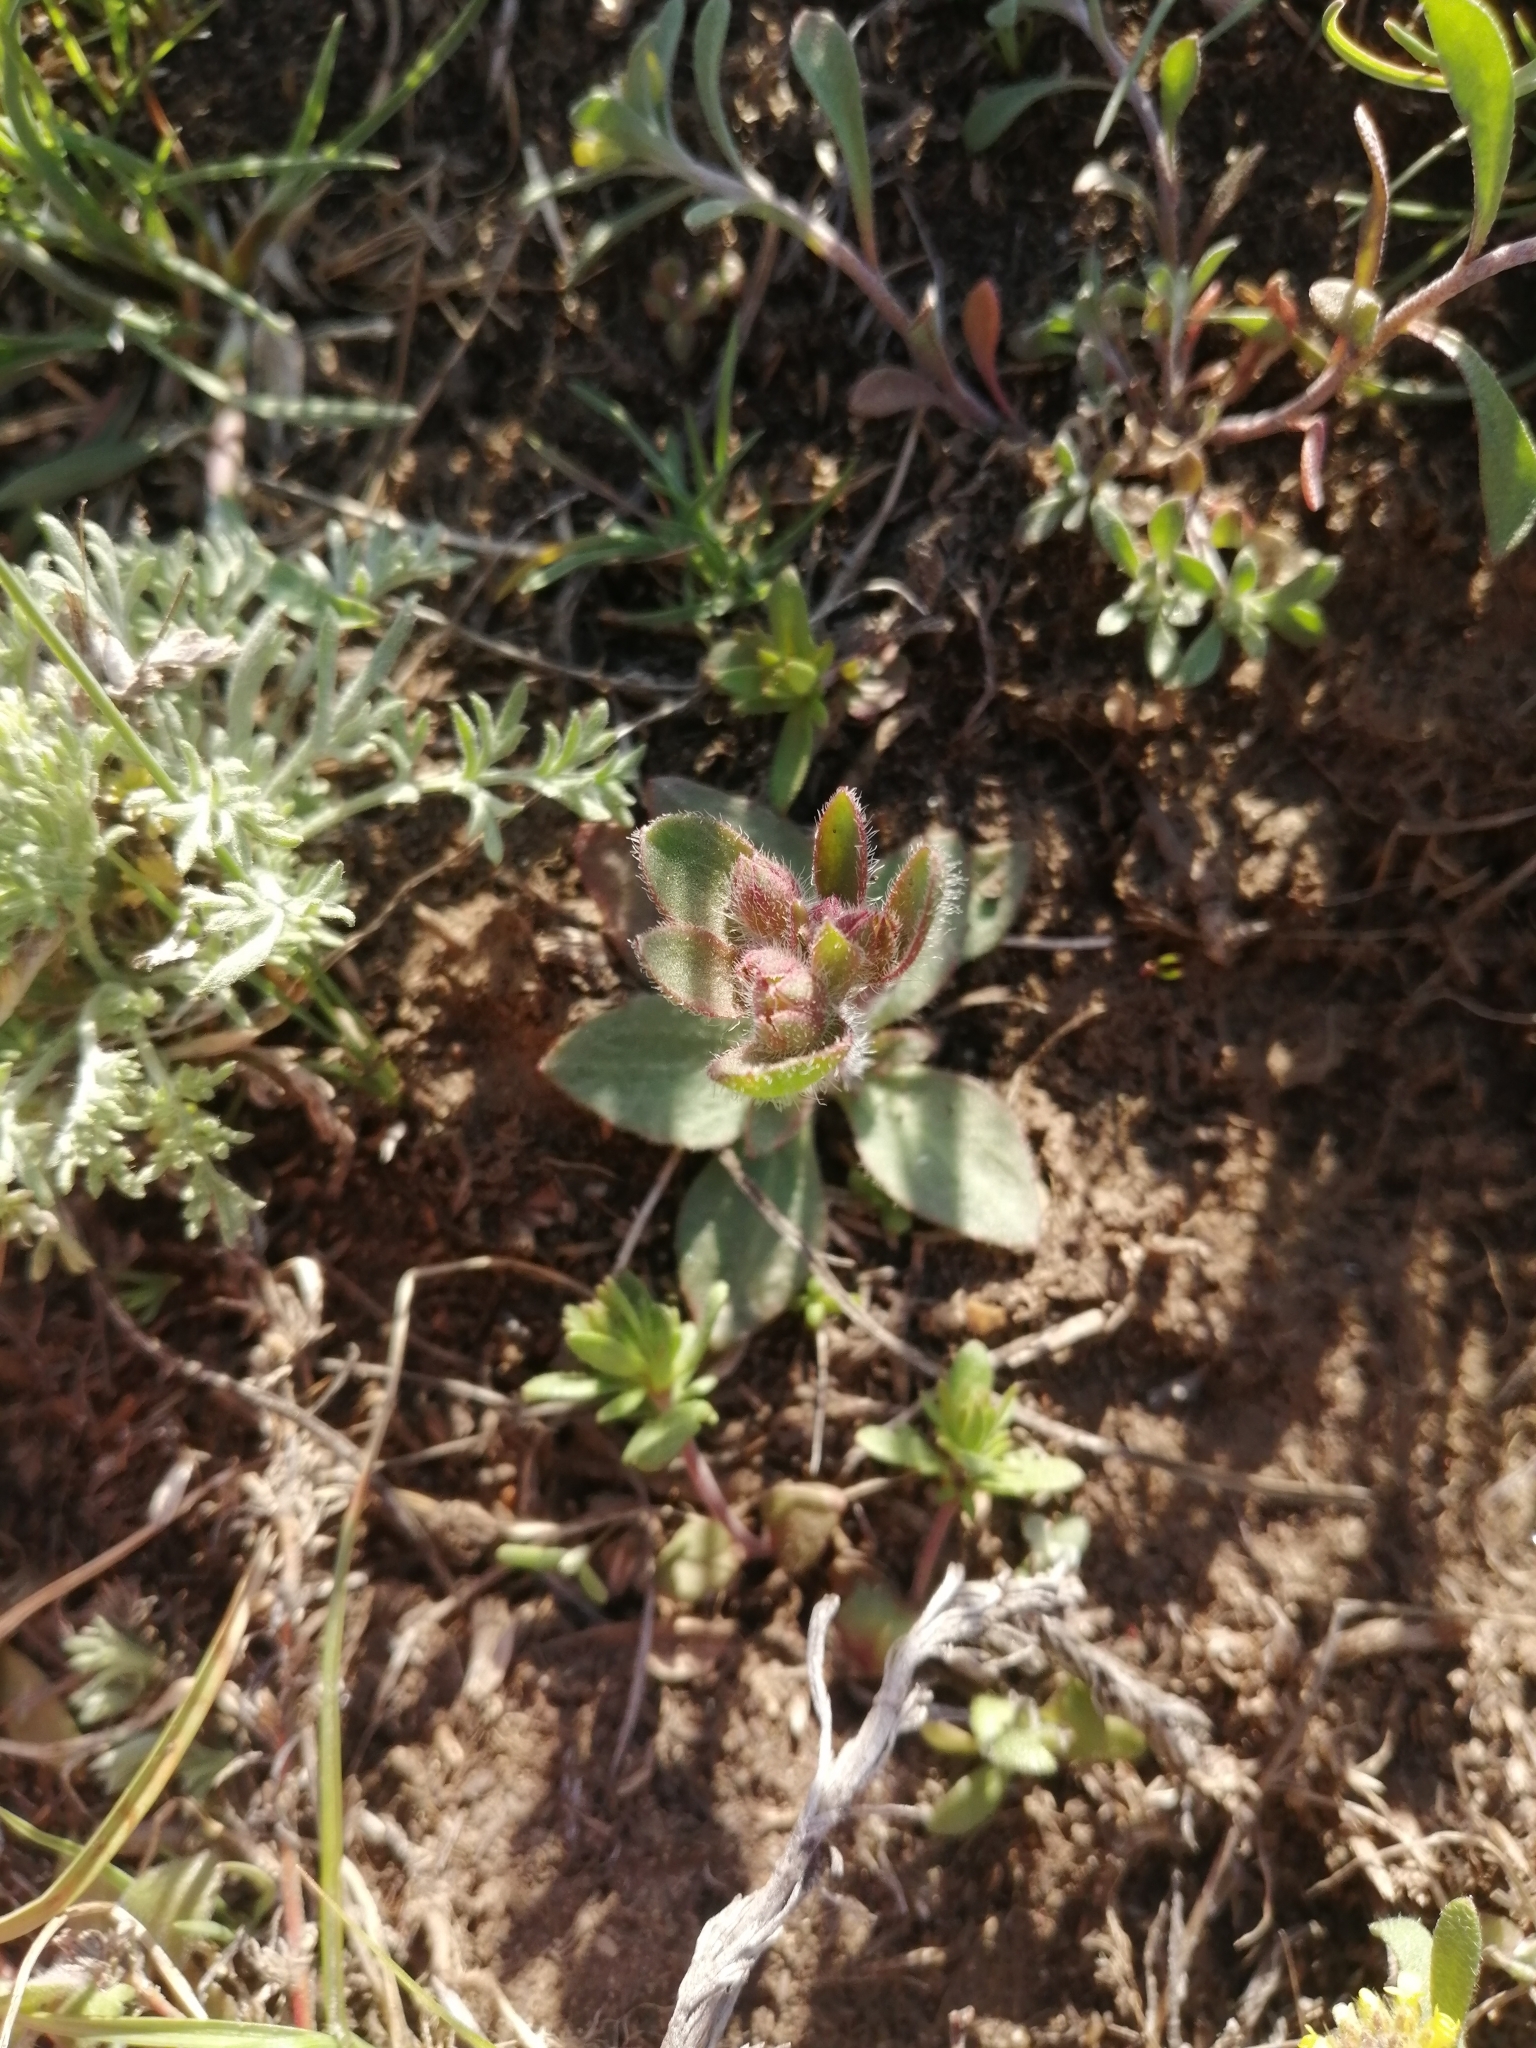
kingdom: Plantae
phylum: Tracheophyta
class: Magnoliopsida
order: Ericales
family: Primulaceae
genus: Androsace
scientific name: Androsace maxima
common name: Annual androsace
